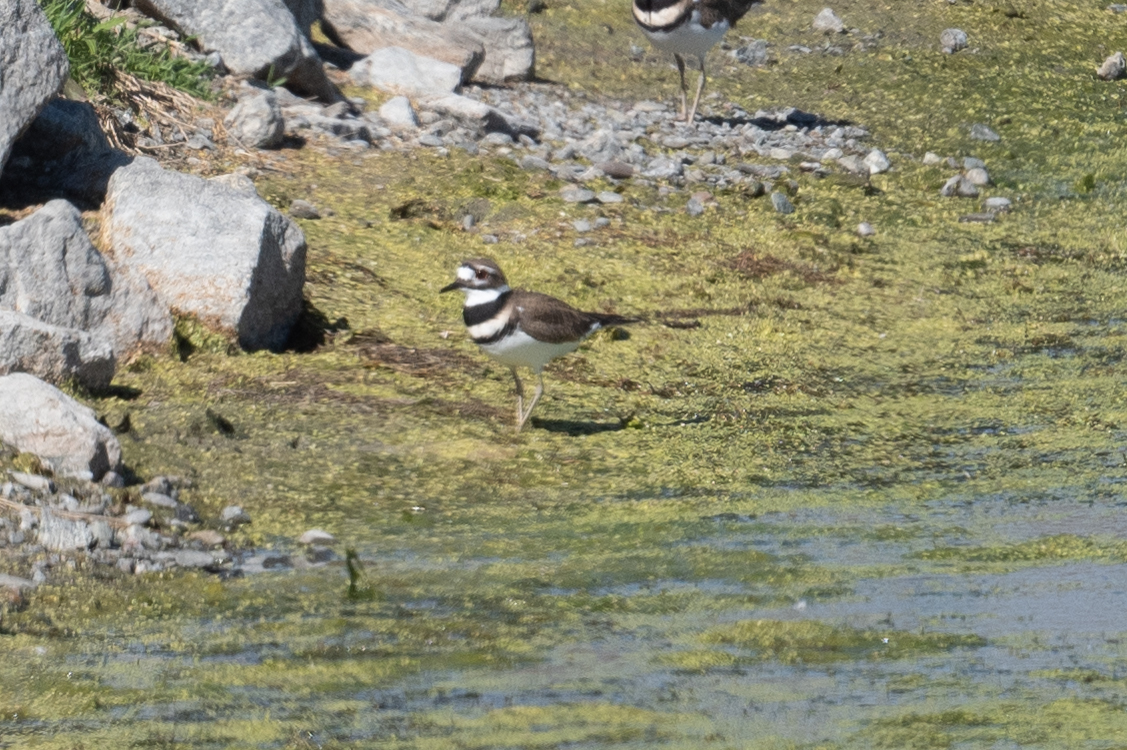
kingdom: Animalia
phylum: Chordata
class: Aves
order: Charadriiformes
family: Charadriidae
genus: Charadrius
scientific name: Charadrius vociferus
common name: Killdeer
